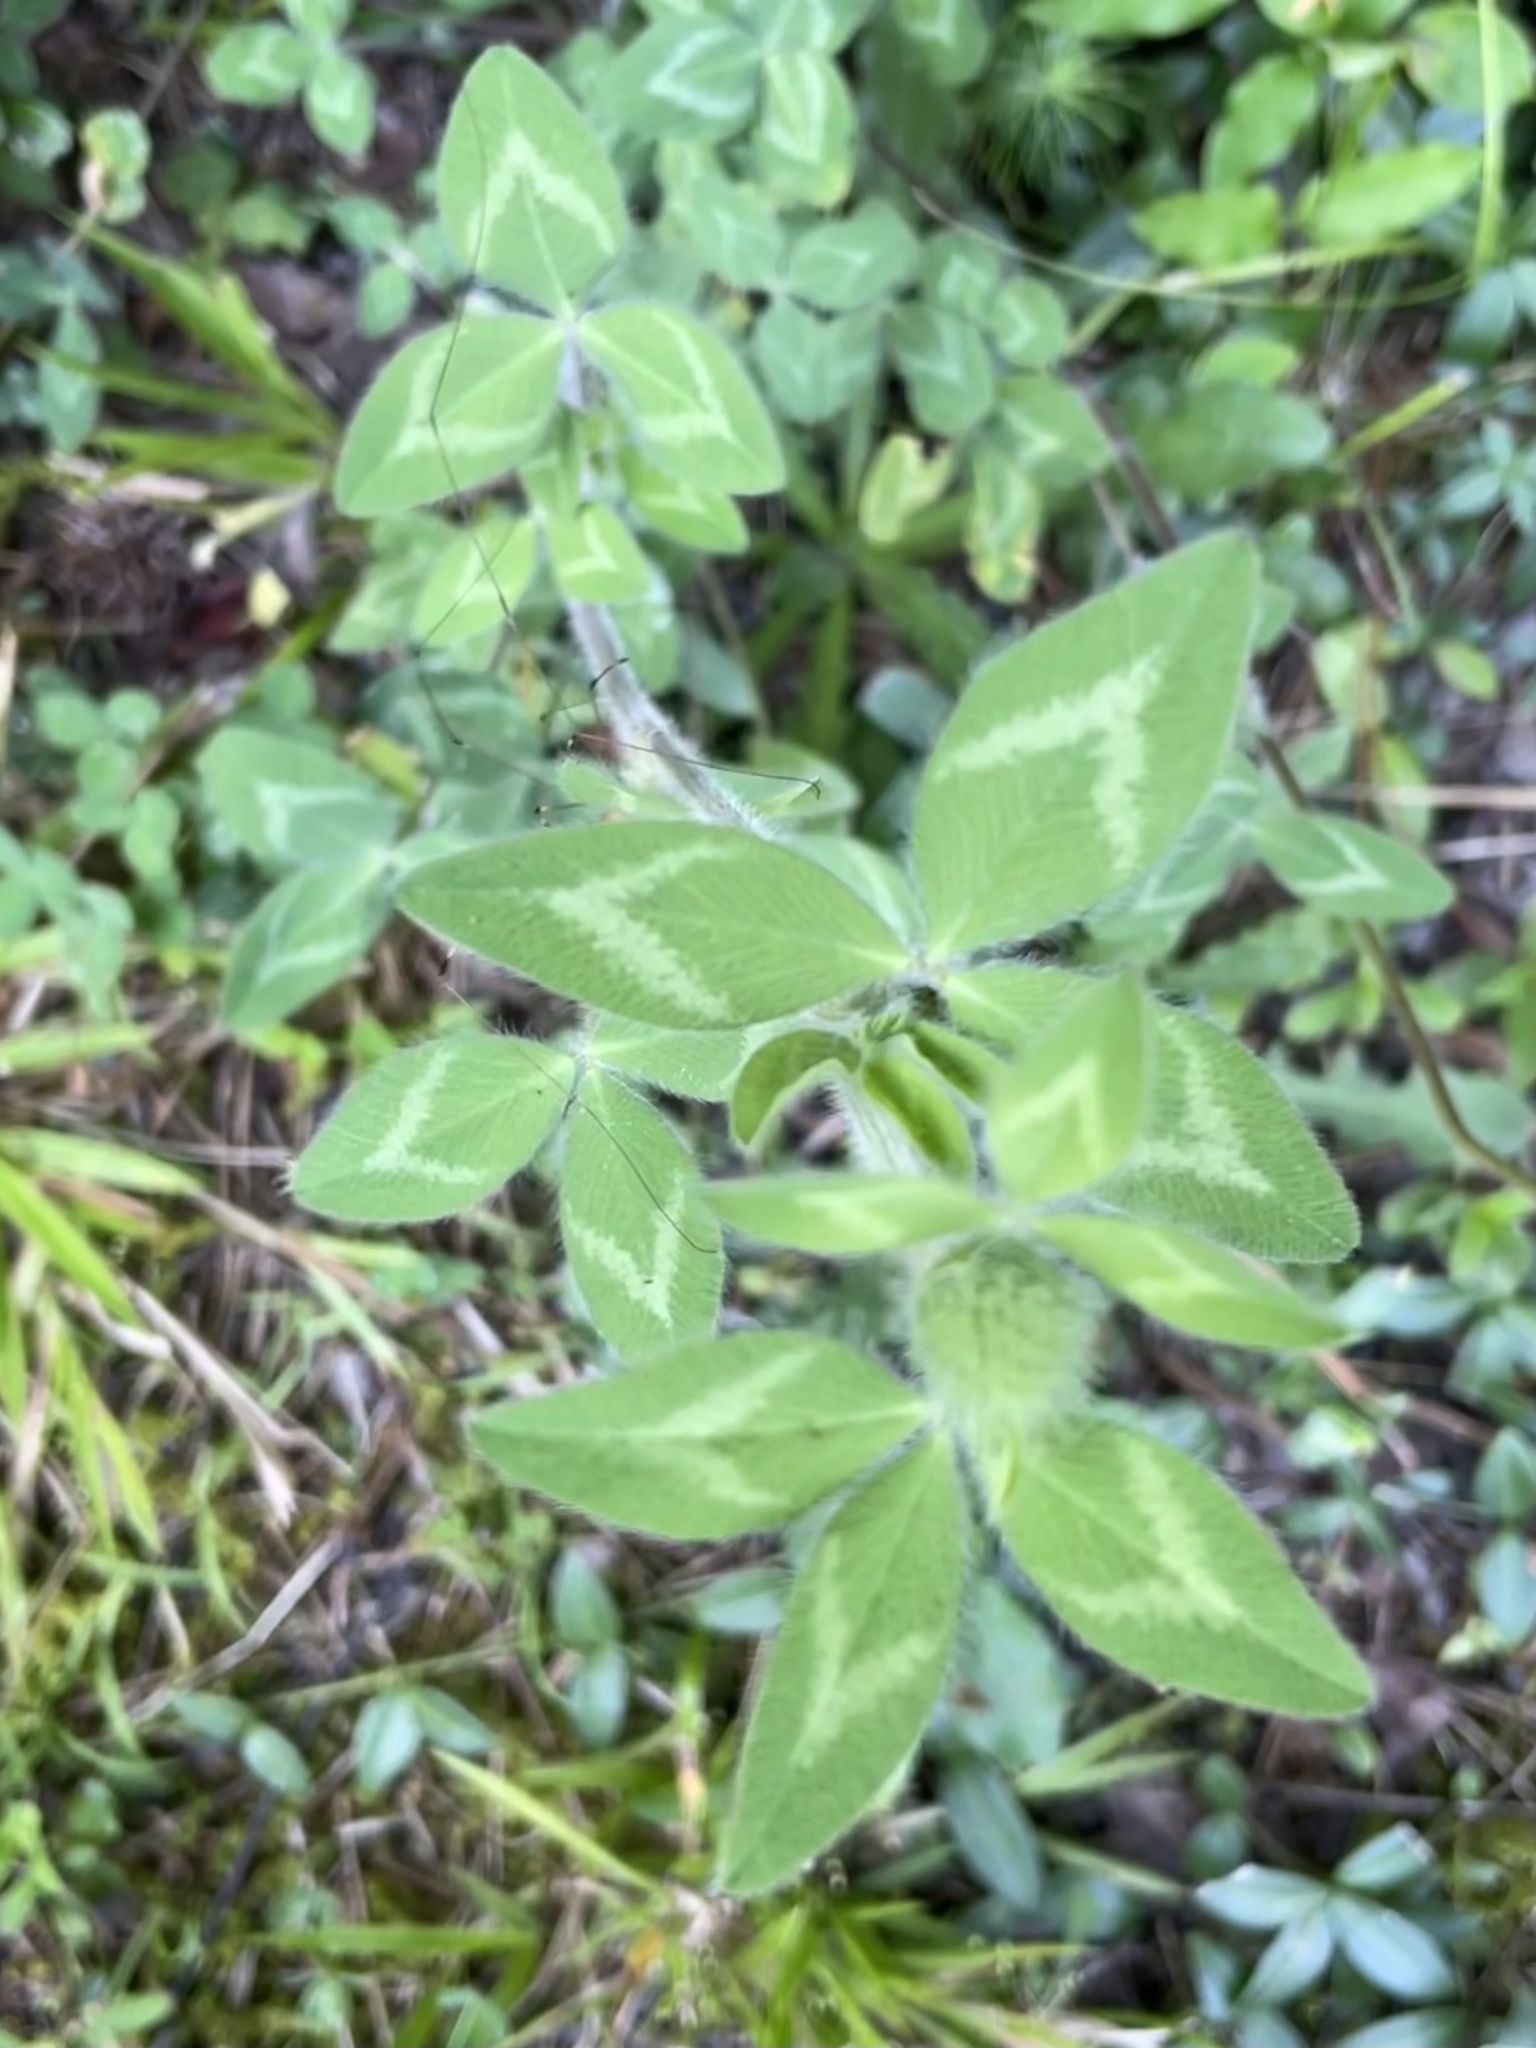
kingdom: Plantae
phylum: Tracheophyta
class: Magnoliopsida
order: Fabales
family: Fabaceae
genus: Trifolium
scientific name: Trifolium pratense
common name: Red clover
